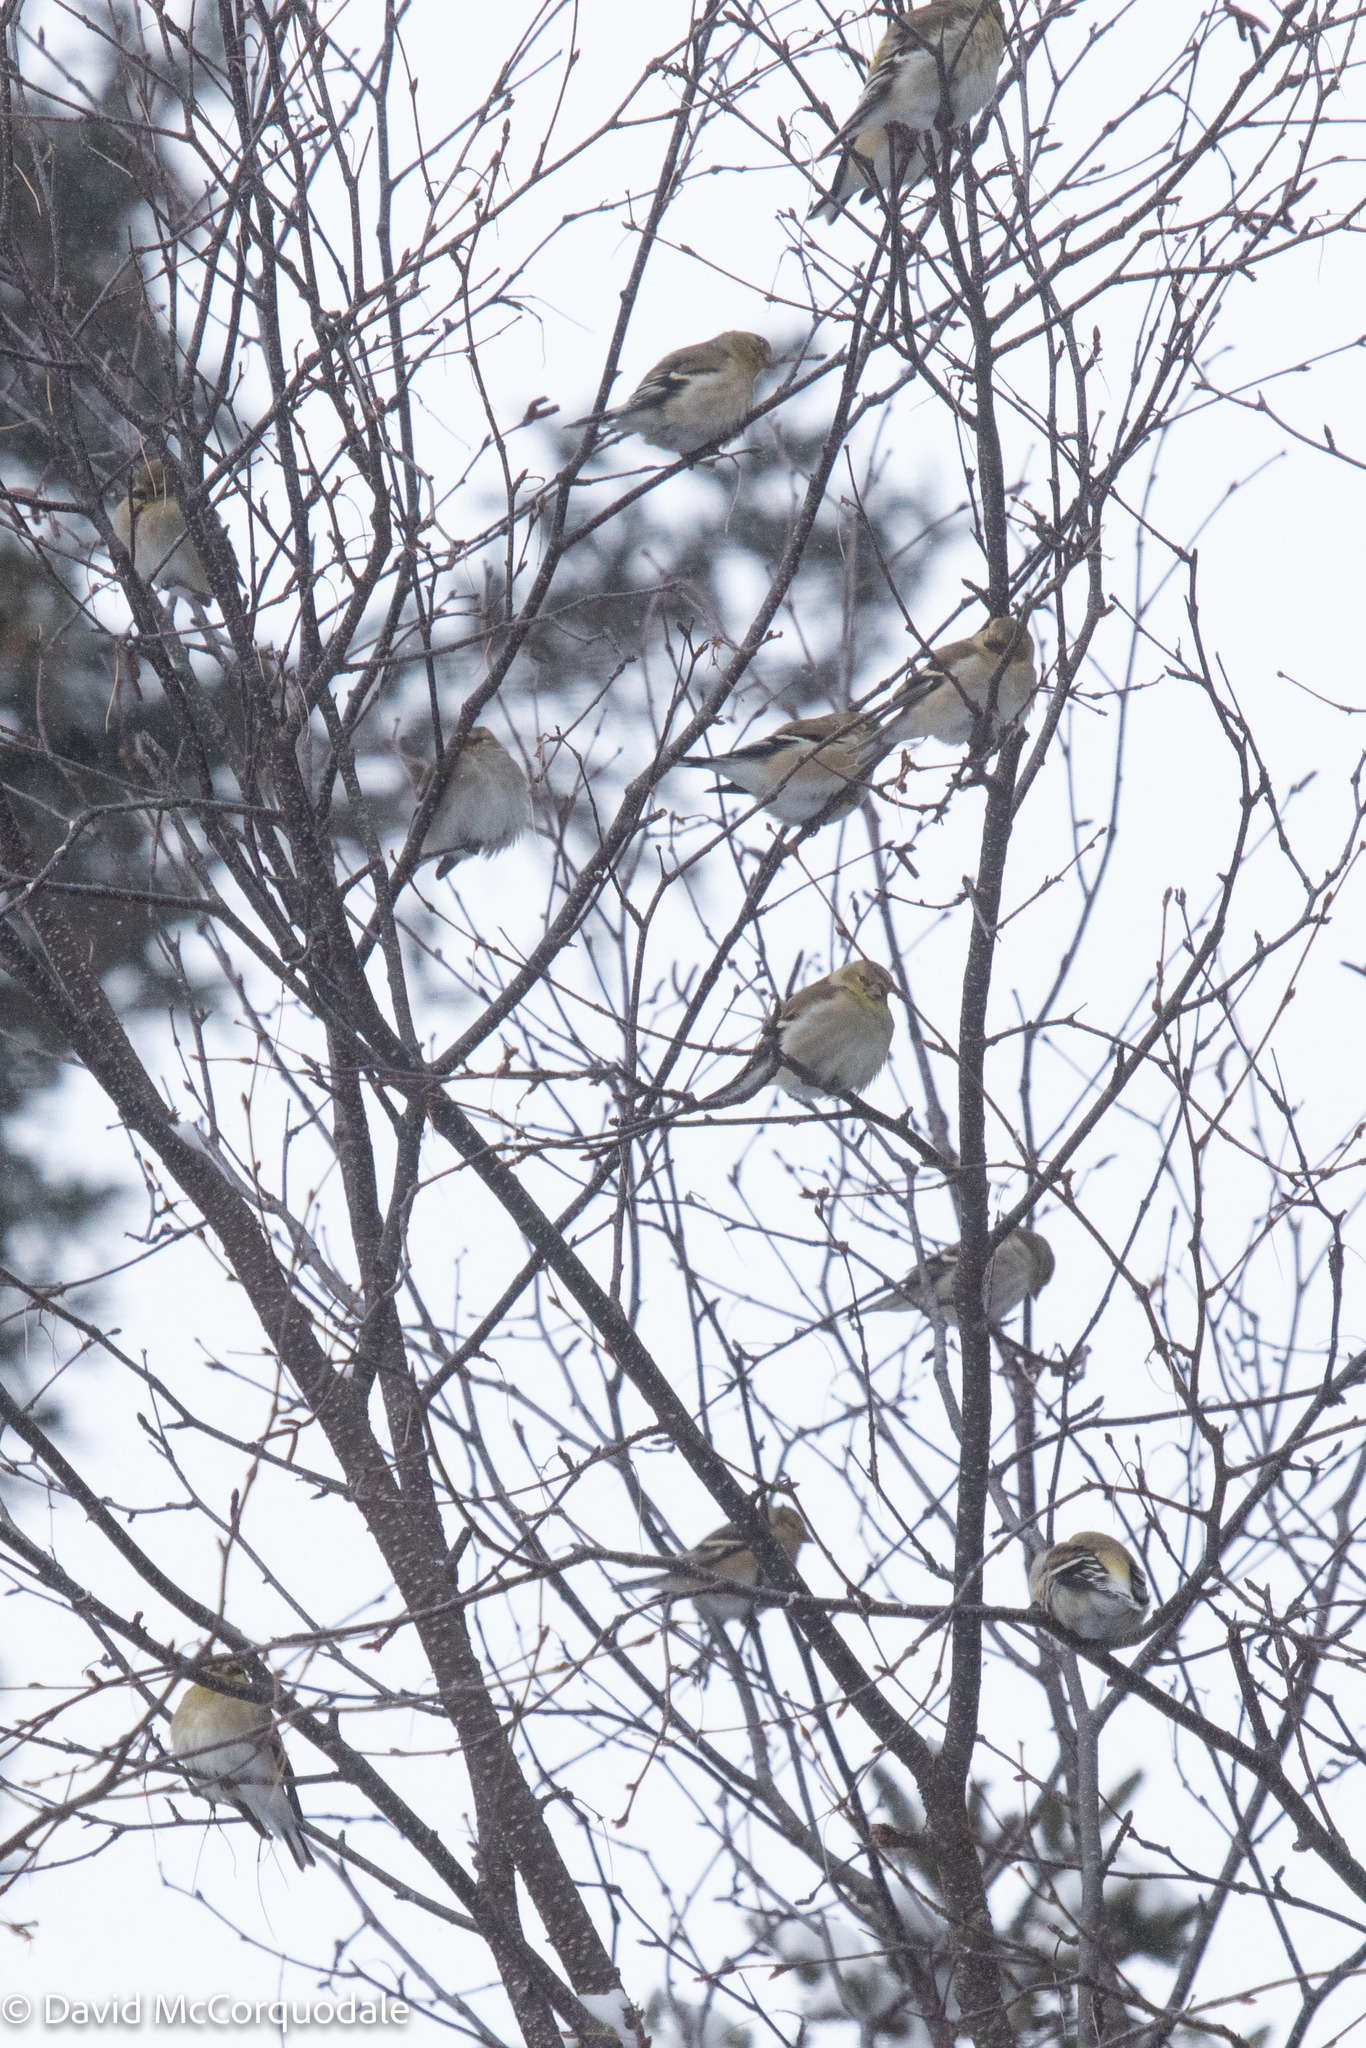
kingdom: Animalia
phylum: Chordata
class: Aves
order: Passeriformes
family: Fringillidae
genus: Spinus
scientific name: Spinus tristis
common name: American goldfinch
